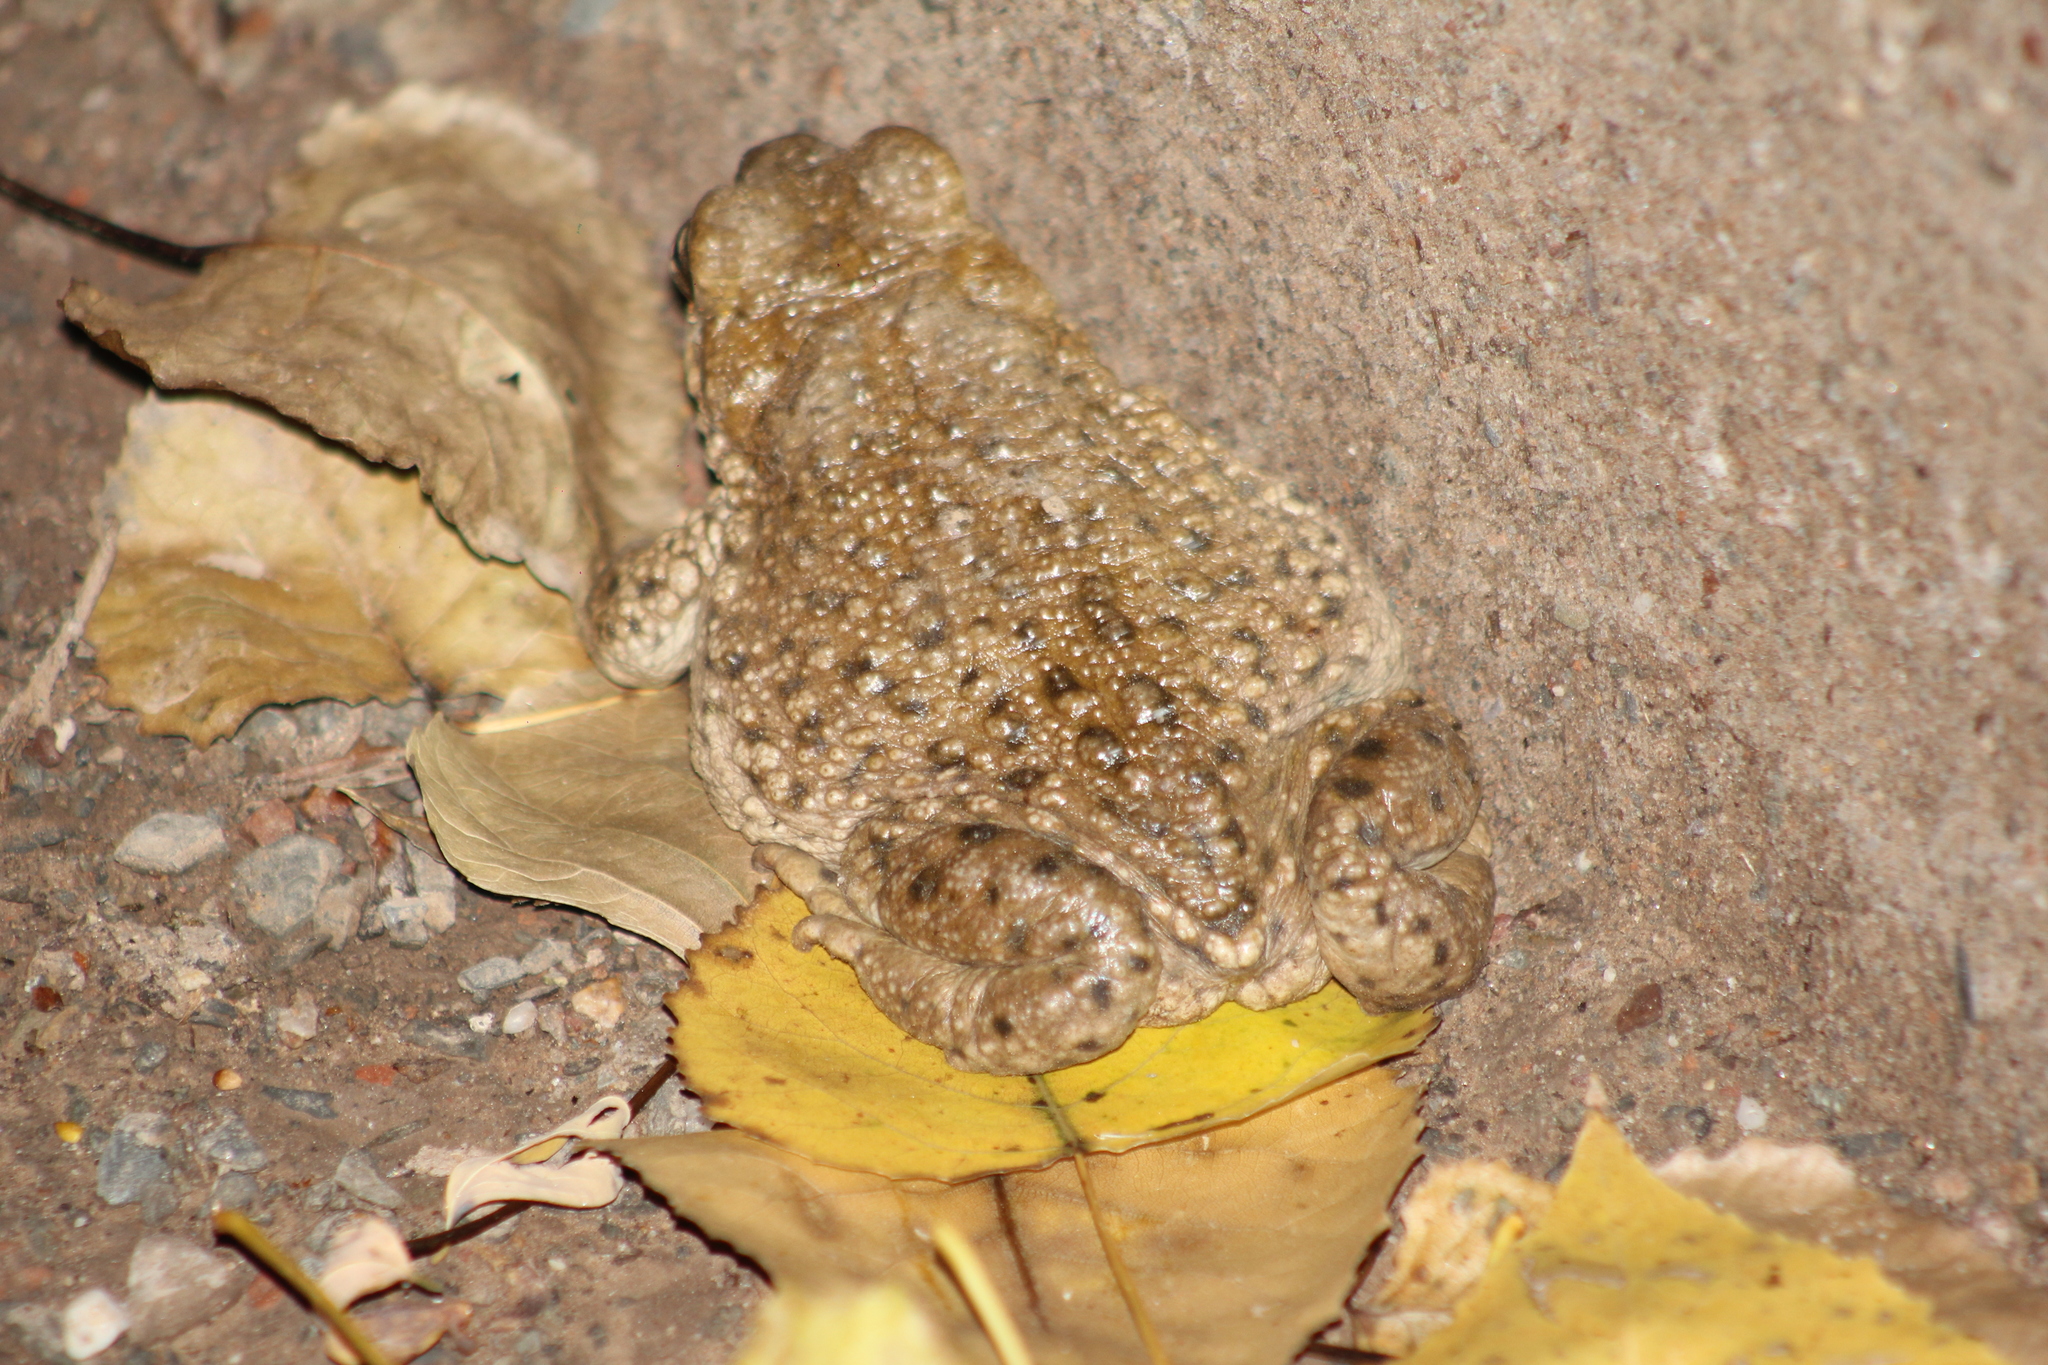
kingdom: Animalia
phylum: Chordata
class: Amphibia
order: Anura
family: Bufonidae
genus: Rhinella
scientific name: Rhinella spinulosa
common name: Warty toad
